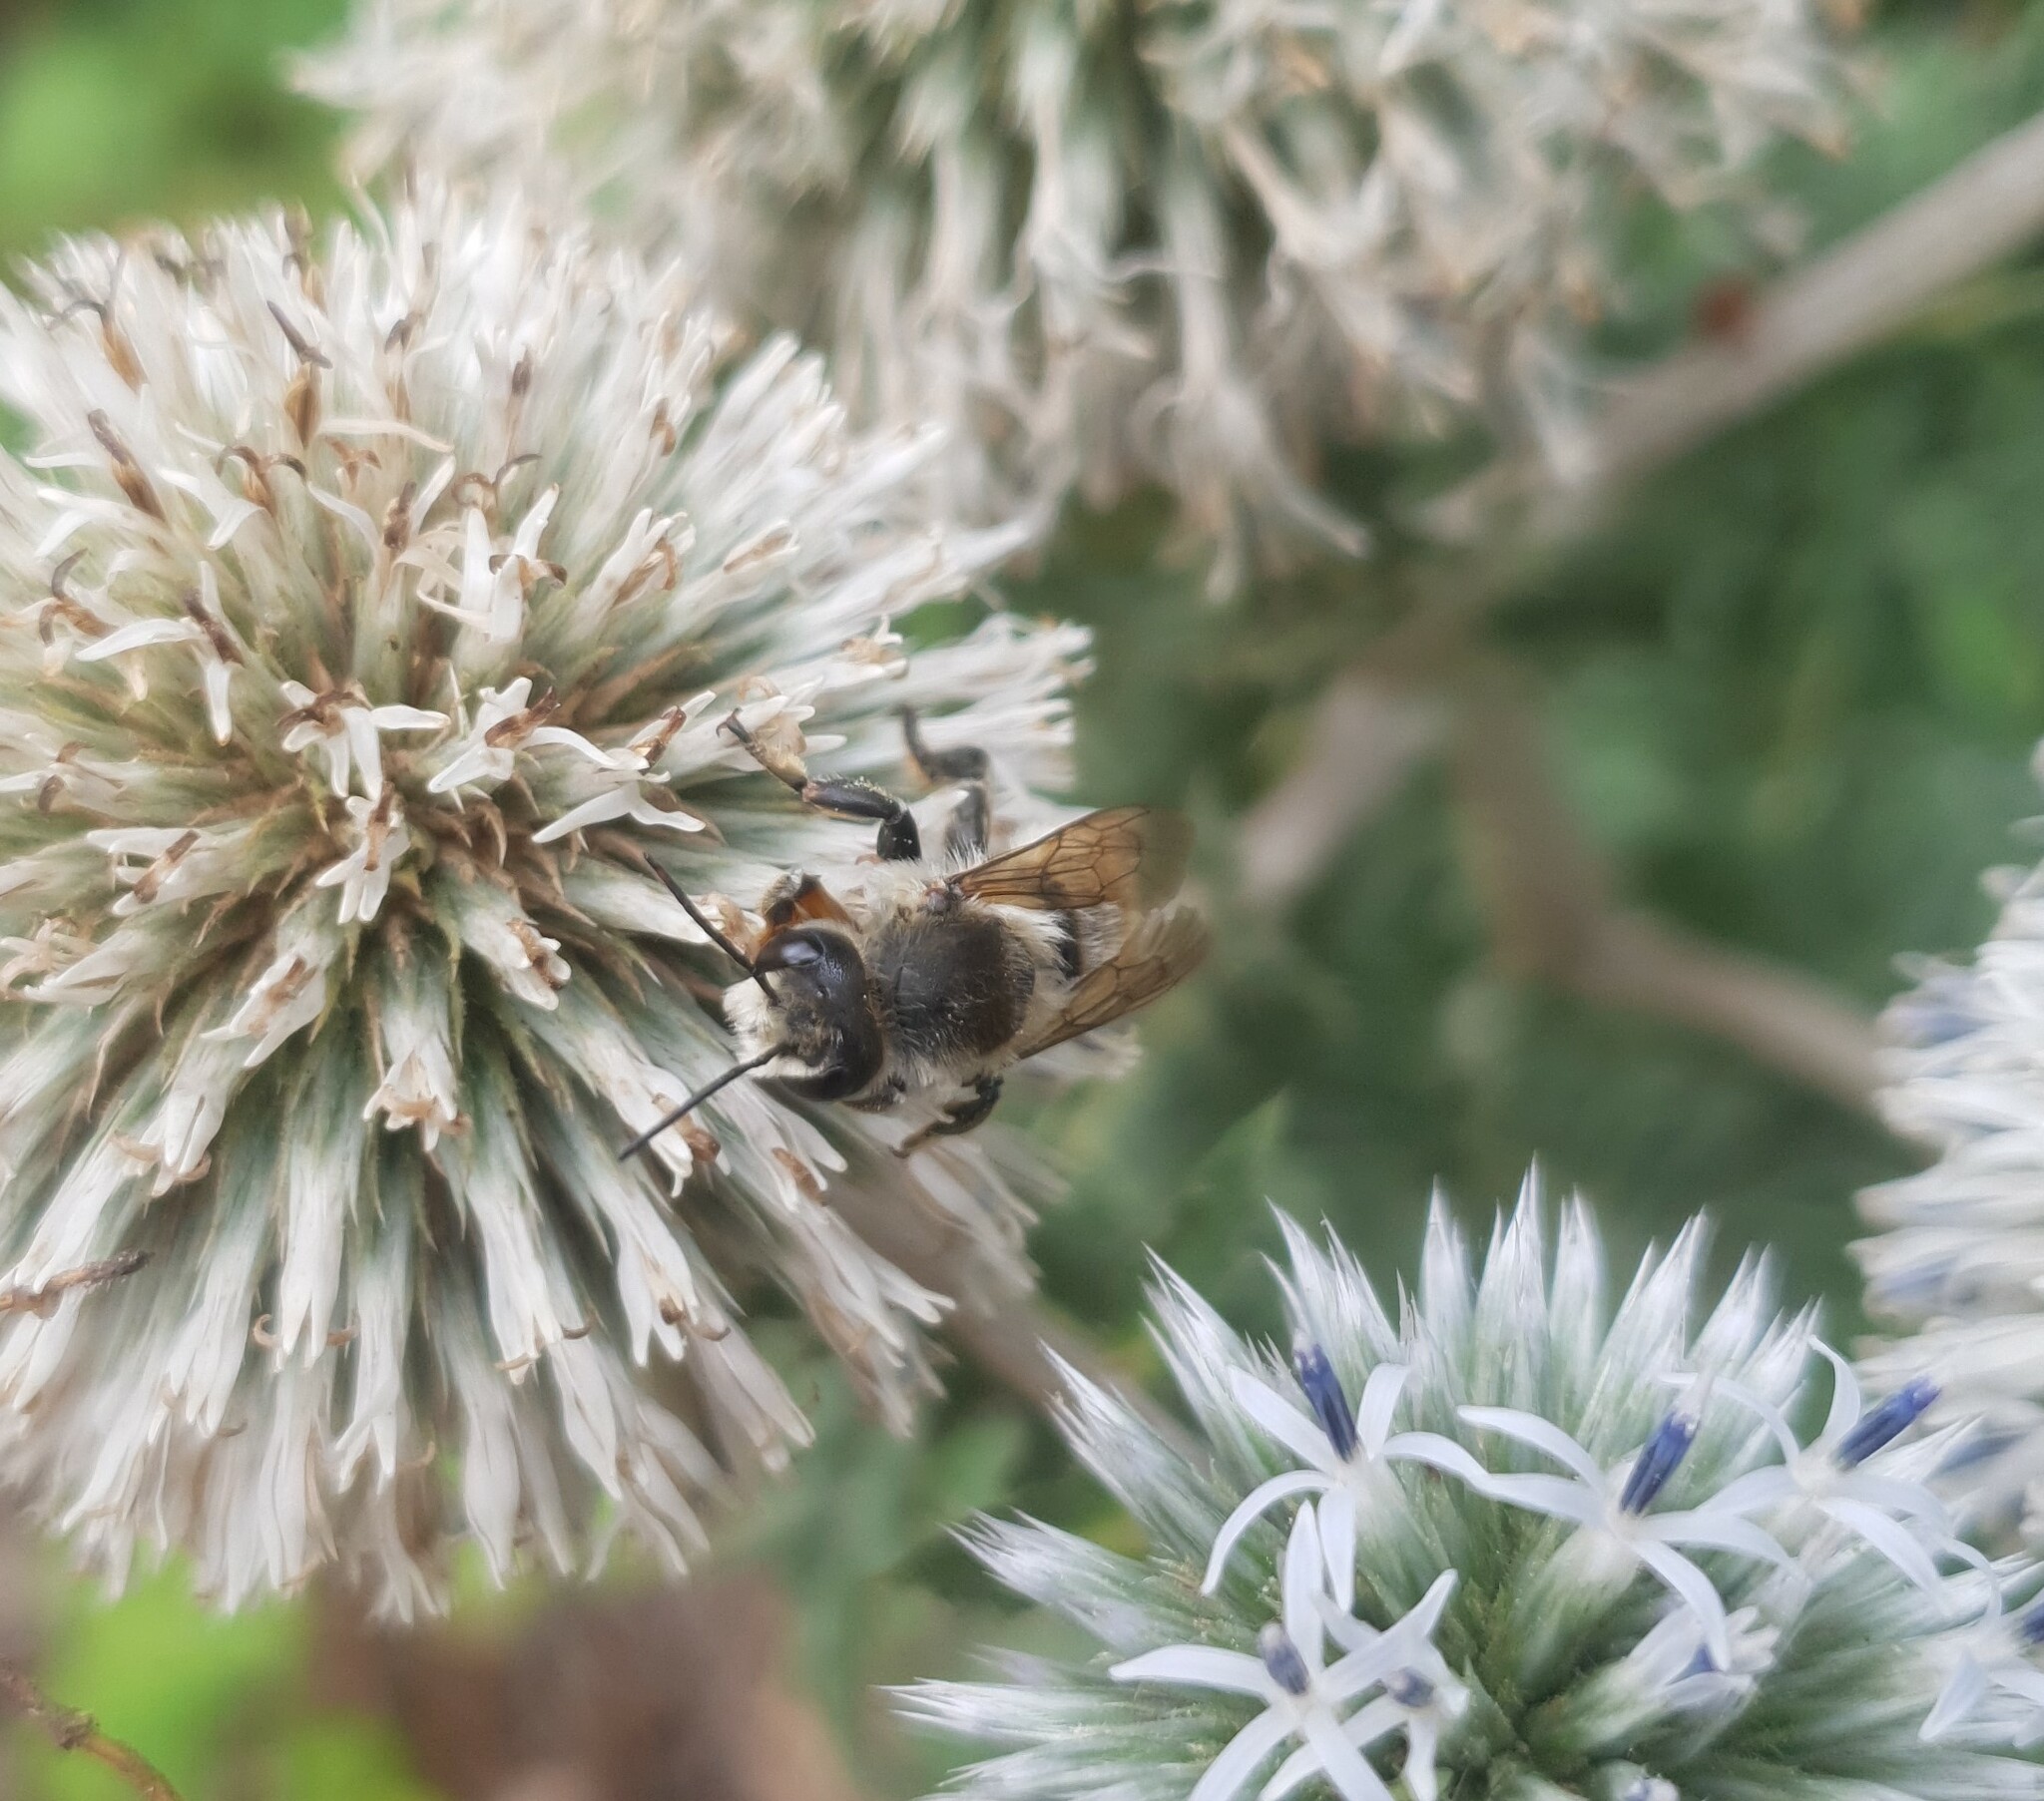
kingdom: Animalia
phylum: Arthropoda
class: Insecta
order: Hymenoptera
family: Megachilidae
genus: Megachile
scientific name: Megachile lagopoda
